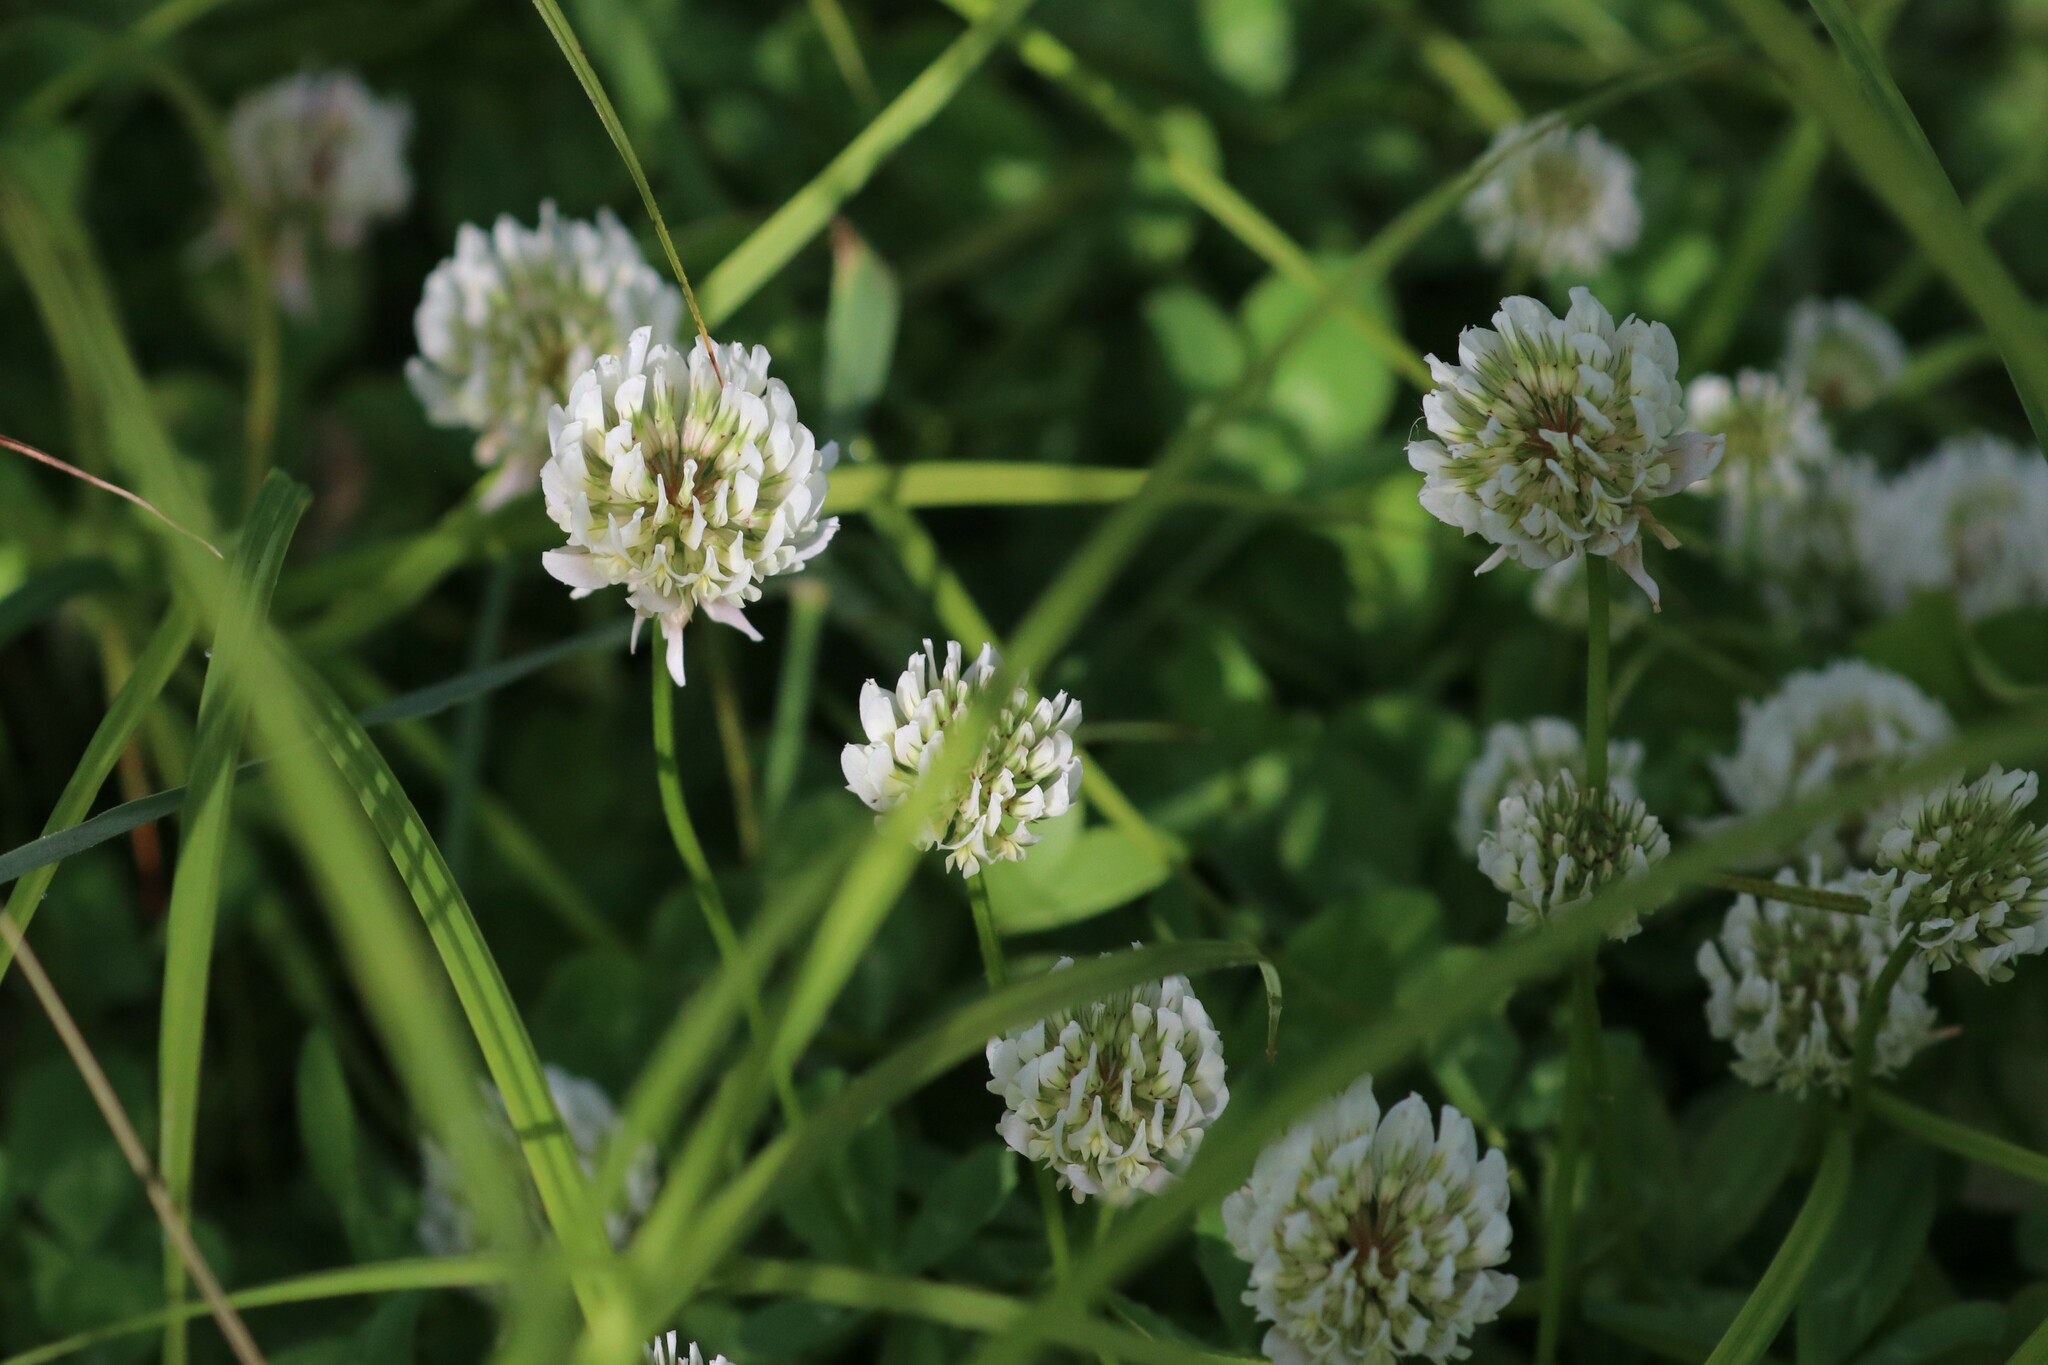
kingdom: Plantae
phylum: Tracheophyta
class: Magnoliopsida
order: Fabales
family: Fabaceae
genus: Trifolium
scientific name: Trifolium repens
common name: White clover
